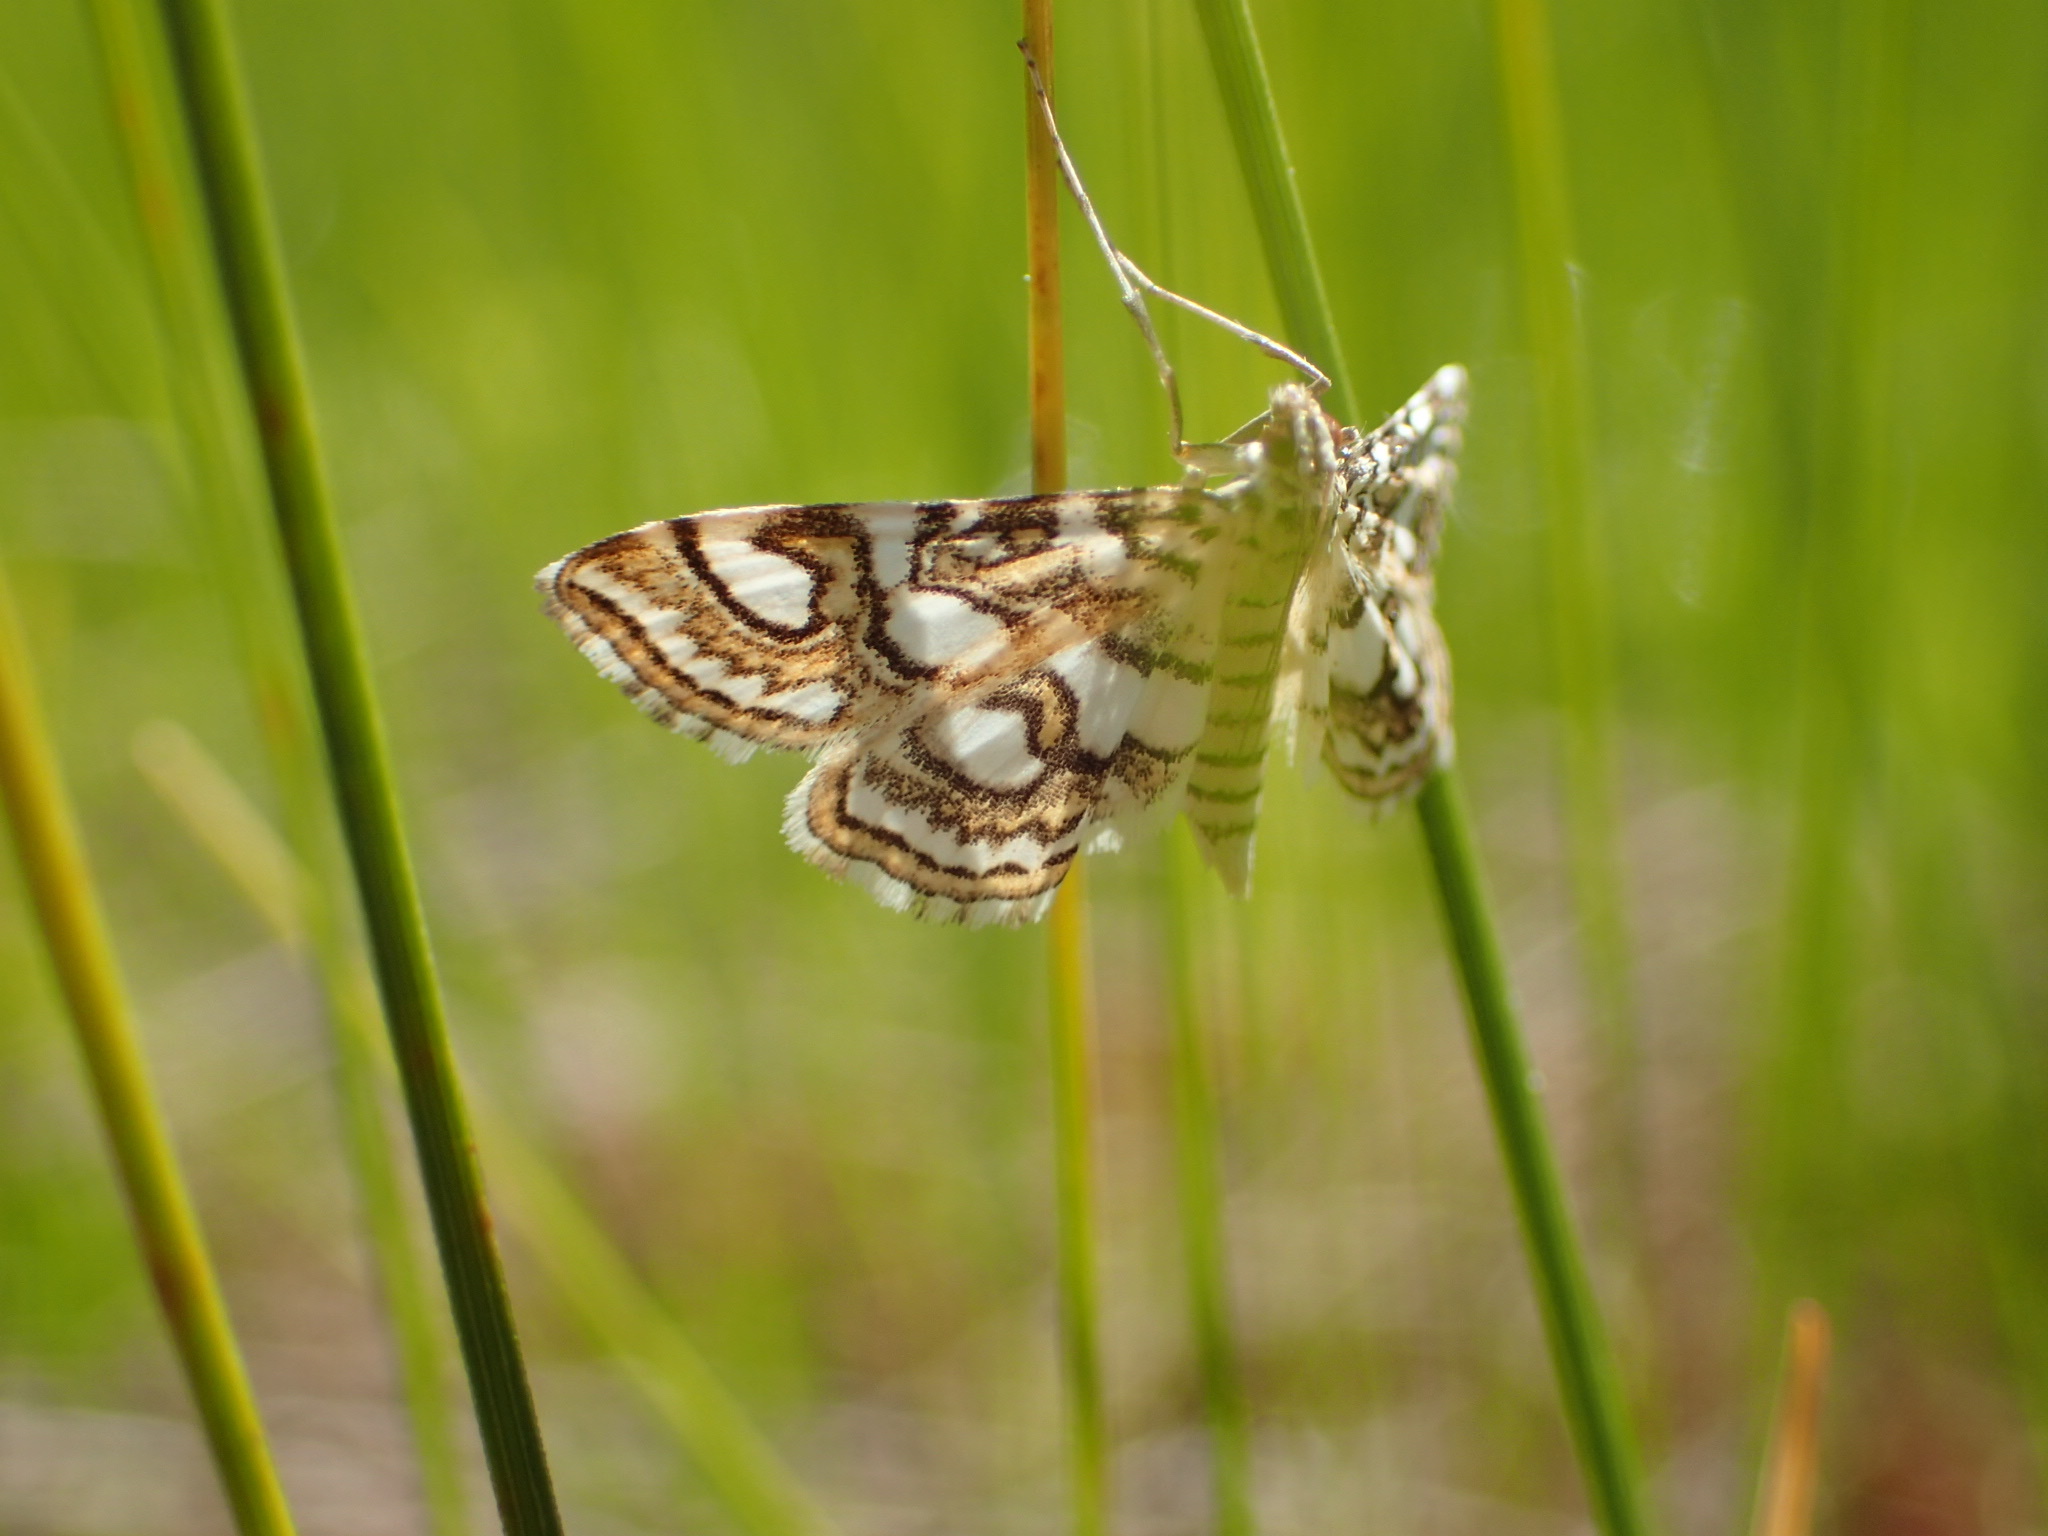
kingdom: Animalia
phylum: Arthropoda
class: Insecta
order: Lepidoptera
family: Crambidae
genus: Elophila
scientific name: Elophila ekthlipsis
